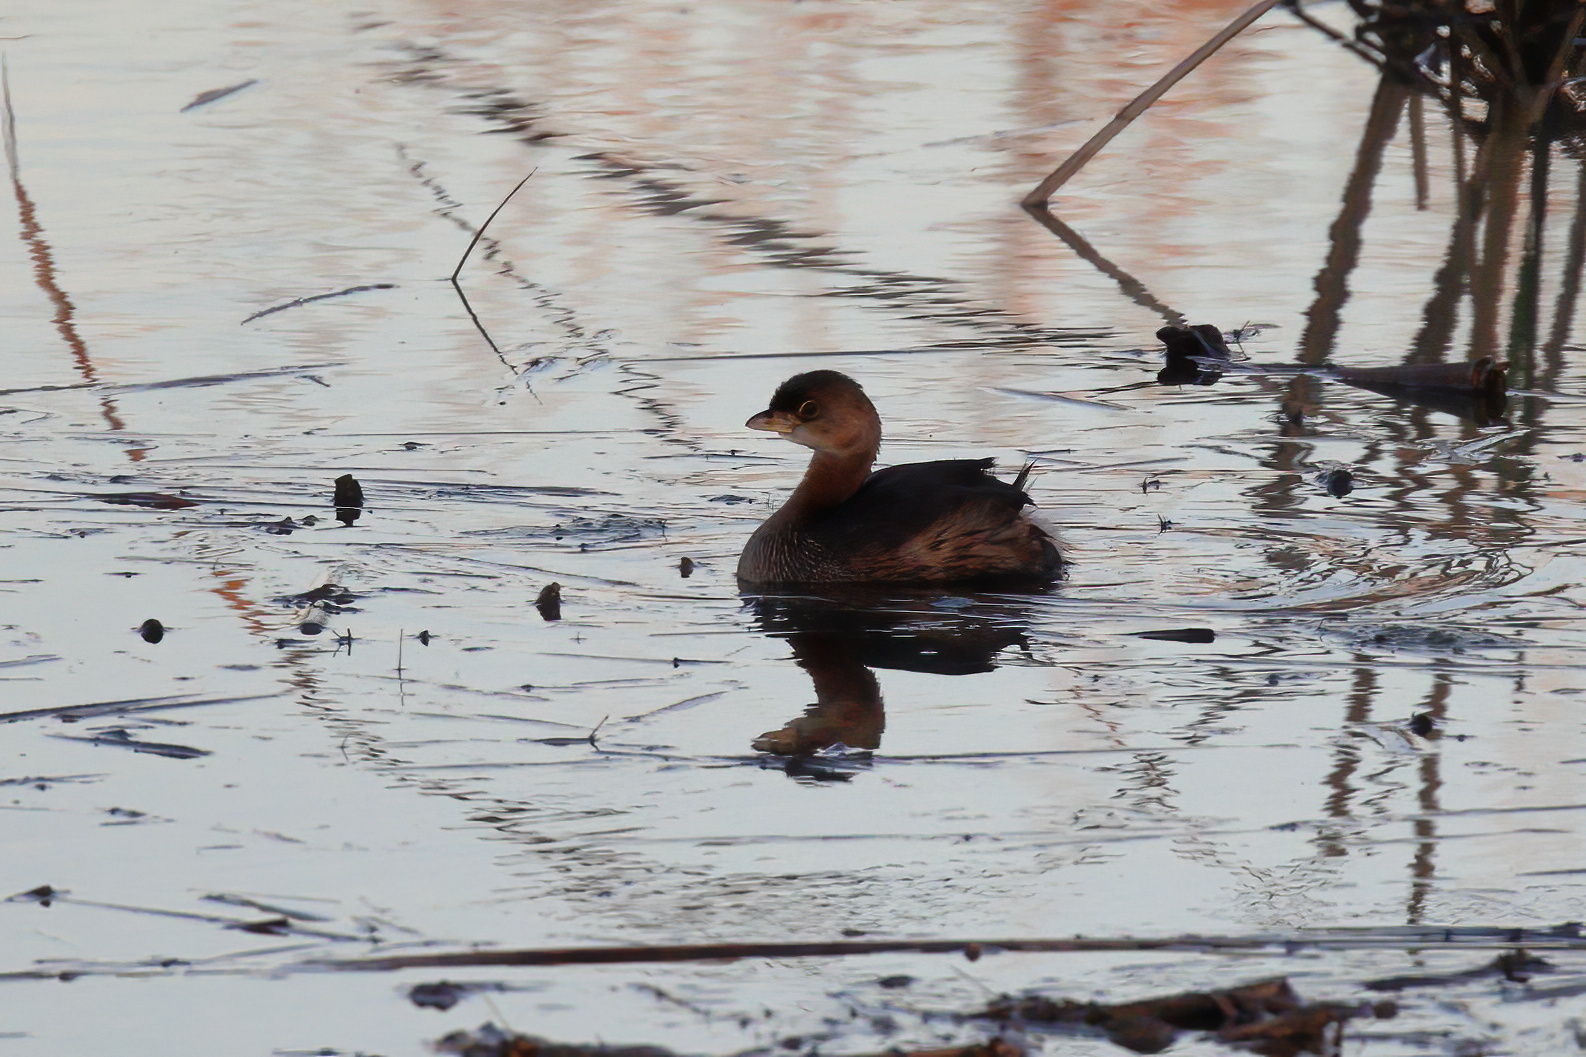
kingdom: Animalia
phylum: Chordata
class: Aves
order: Podicipediformes
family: Podicipedidae
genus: Podilymbus
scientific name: Podilymbus podiceps
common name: Pied-billed grebe
